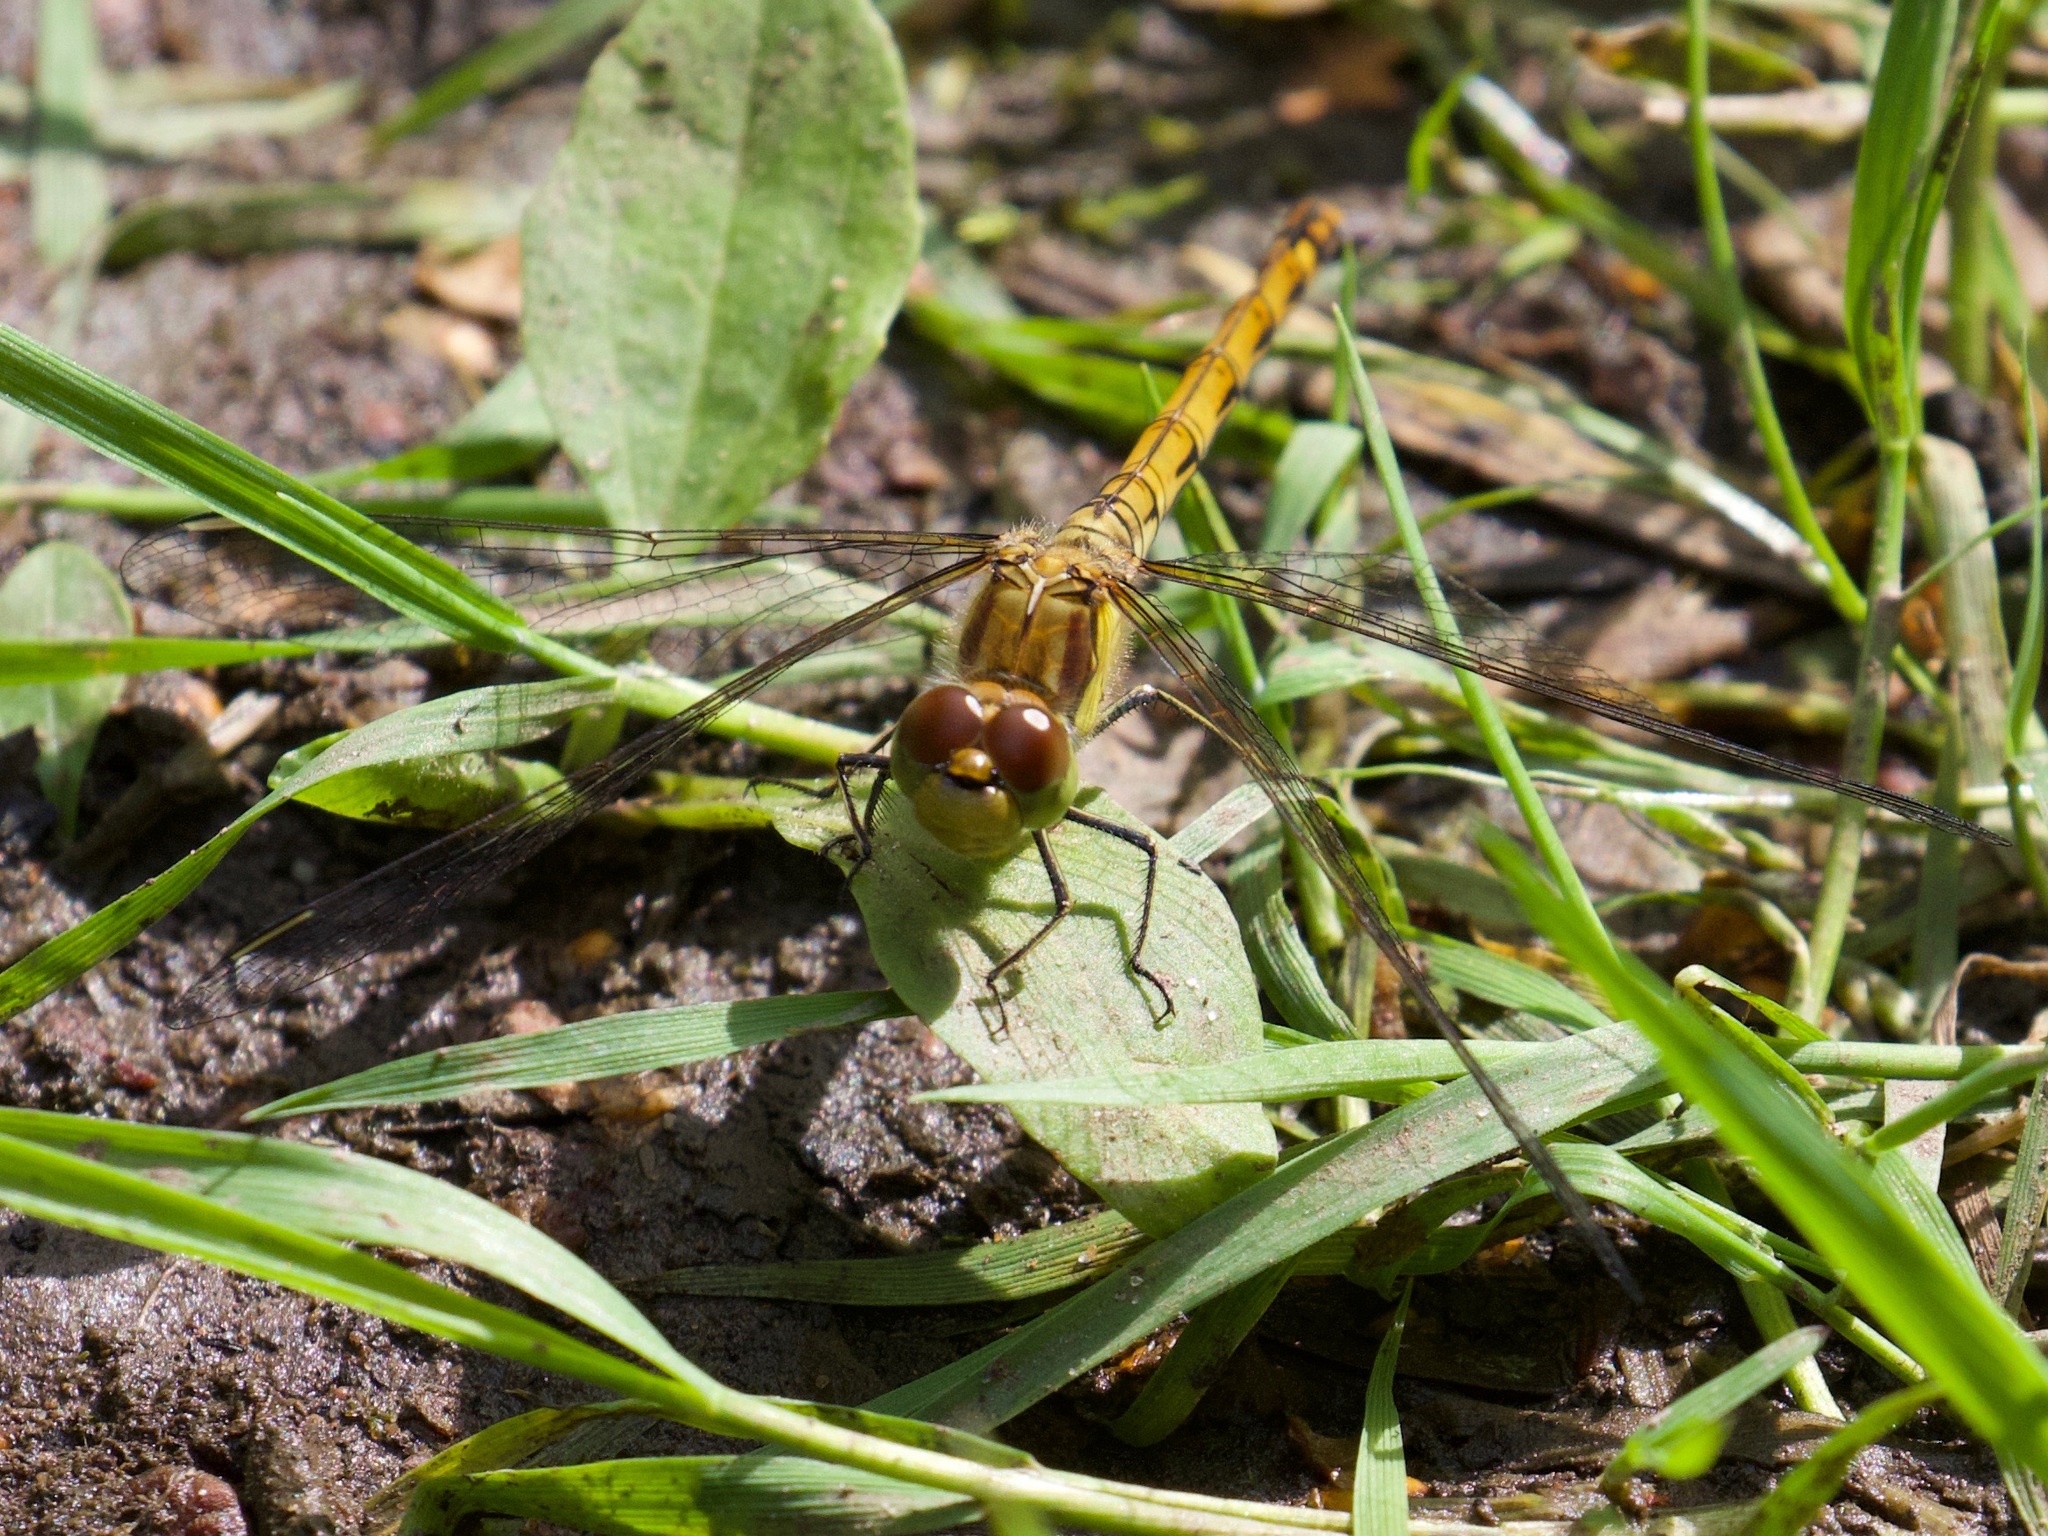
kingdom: Animalia
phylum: Arthropoda
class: Insecta
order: Odonata
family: Libellulidae
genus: Sympetrum
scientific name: Sympetrum striolatum
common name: Common darter
